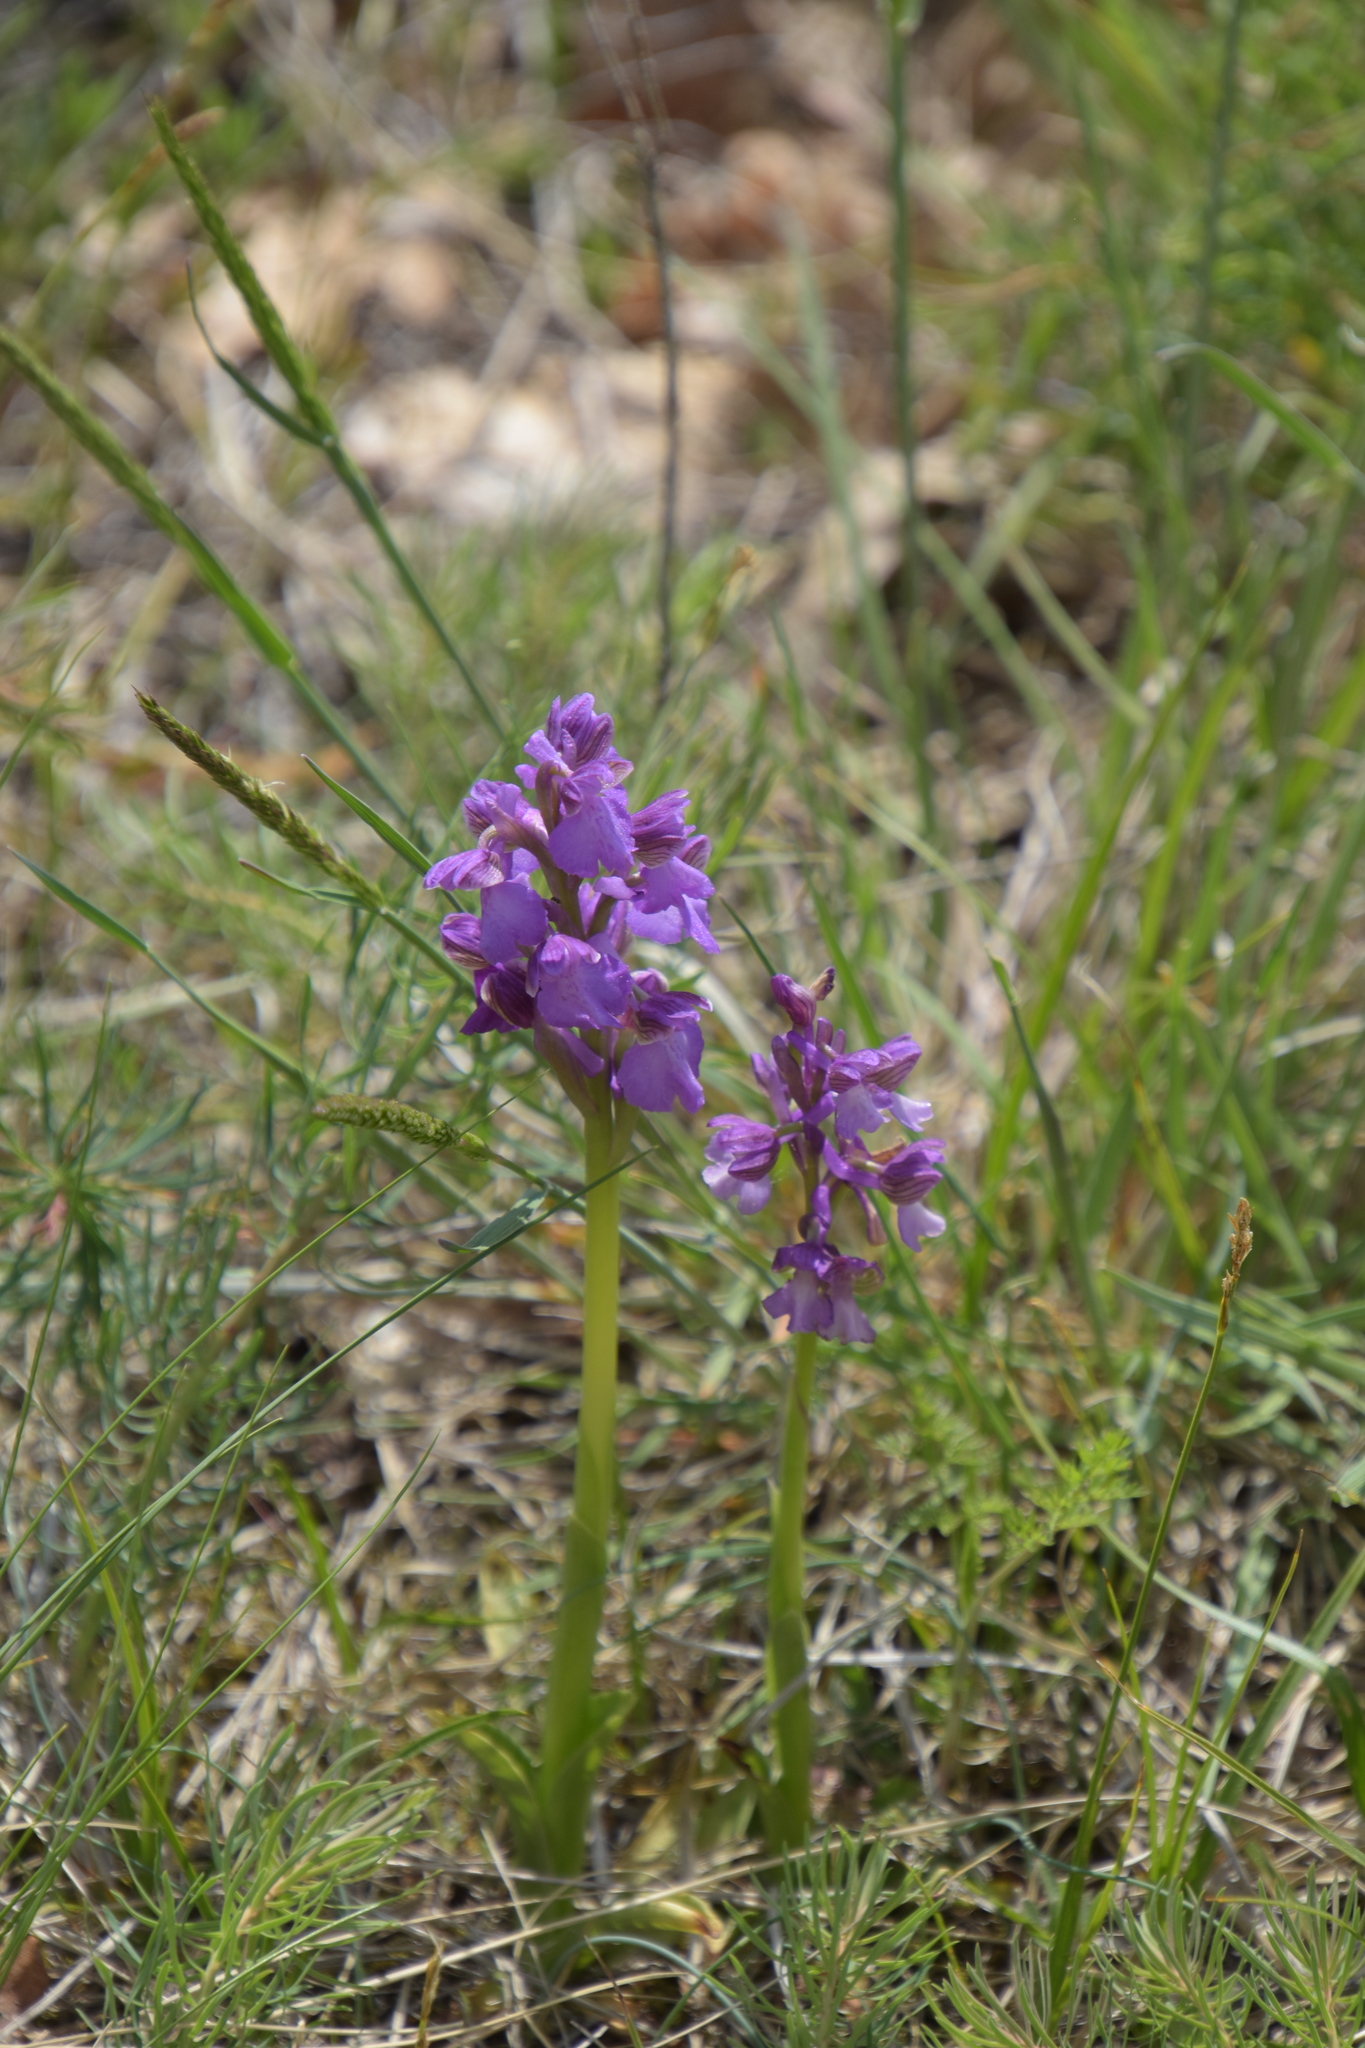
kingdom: Plantae
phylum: Tracheophyta
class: Liliopsida
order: Asparagales
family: Orchidaceae
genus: Anacamptis
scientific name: Anacamptis morio
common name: Green-winged orchid
